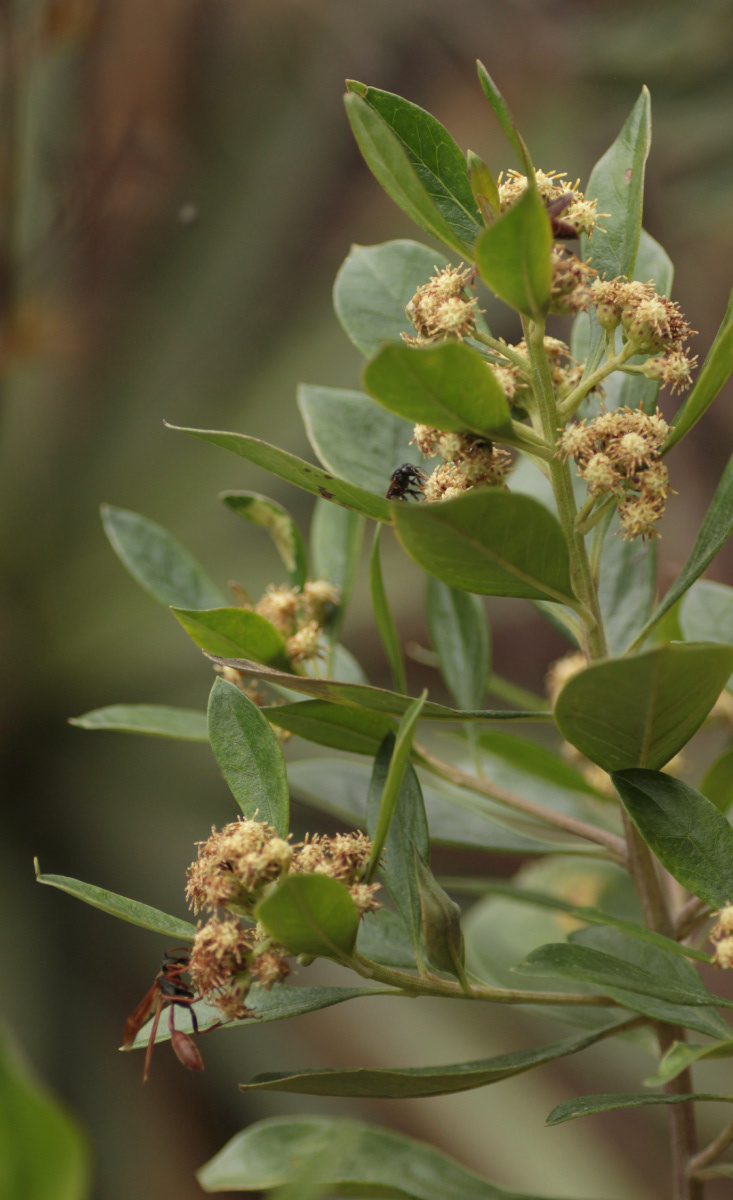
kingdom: Plantae
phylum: Tracheophyta
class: Magnoliopsida
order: Asterales
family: Asteraceae
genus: Baccharis
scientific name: Baccharis macrantha
